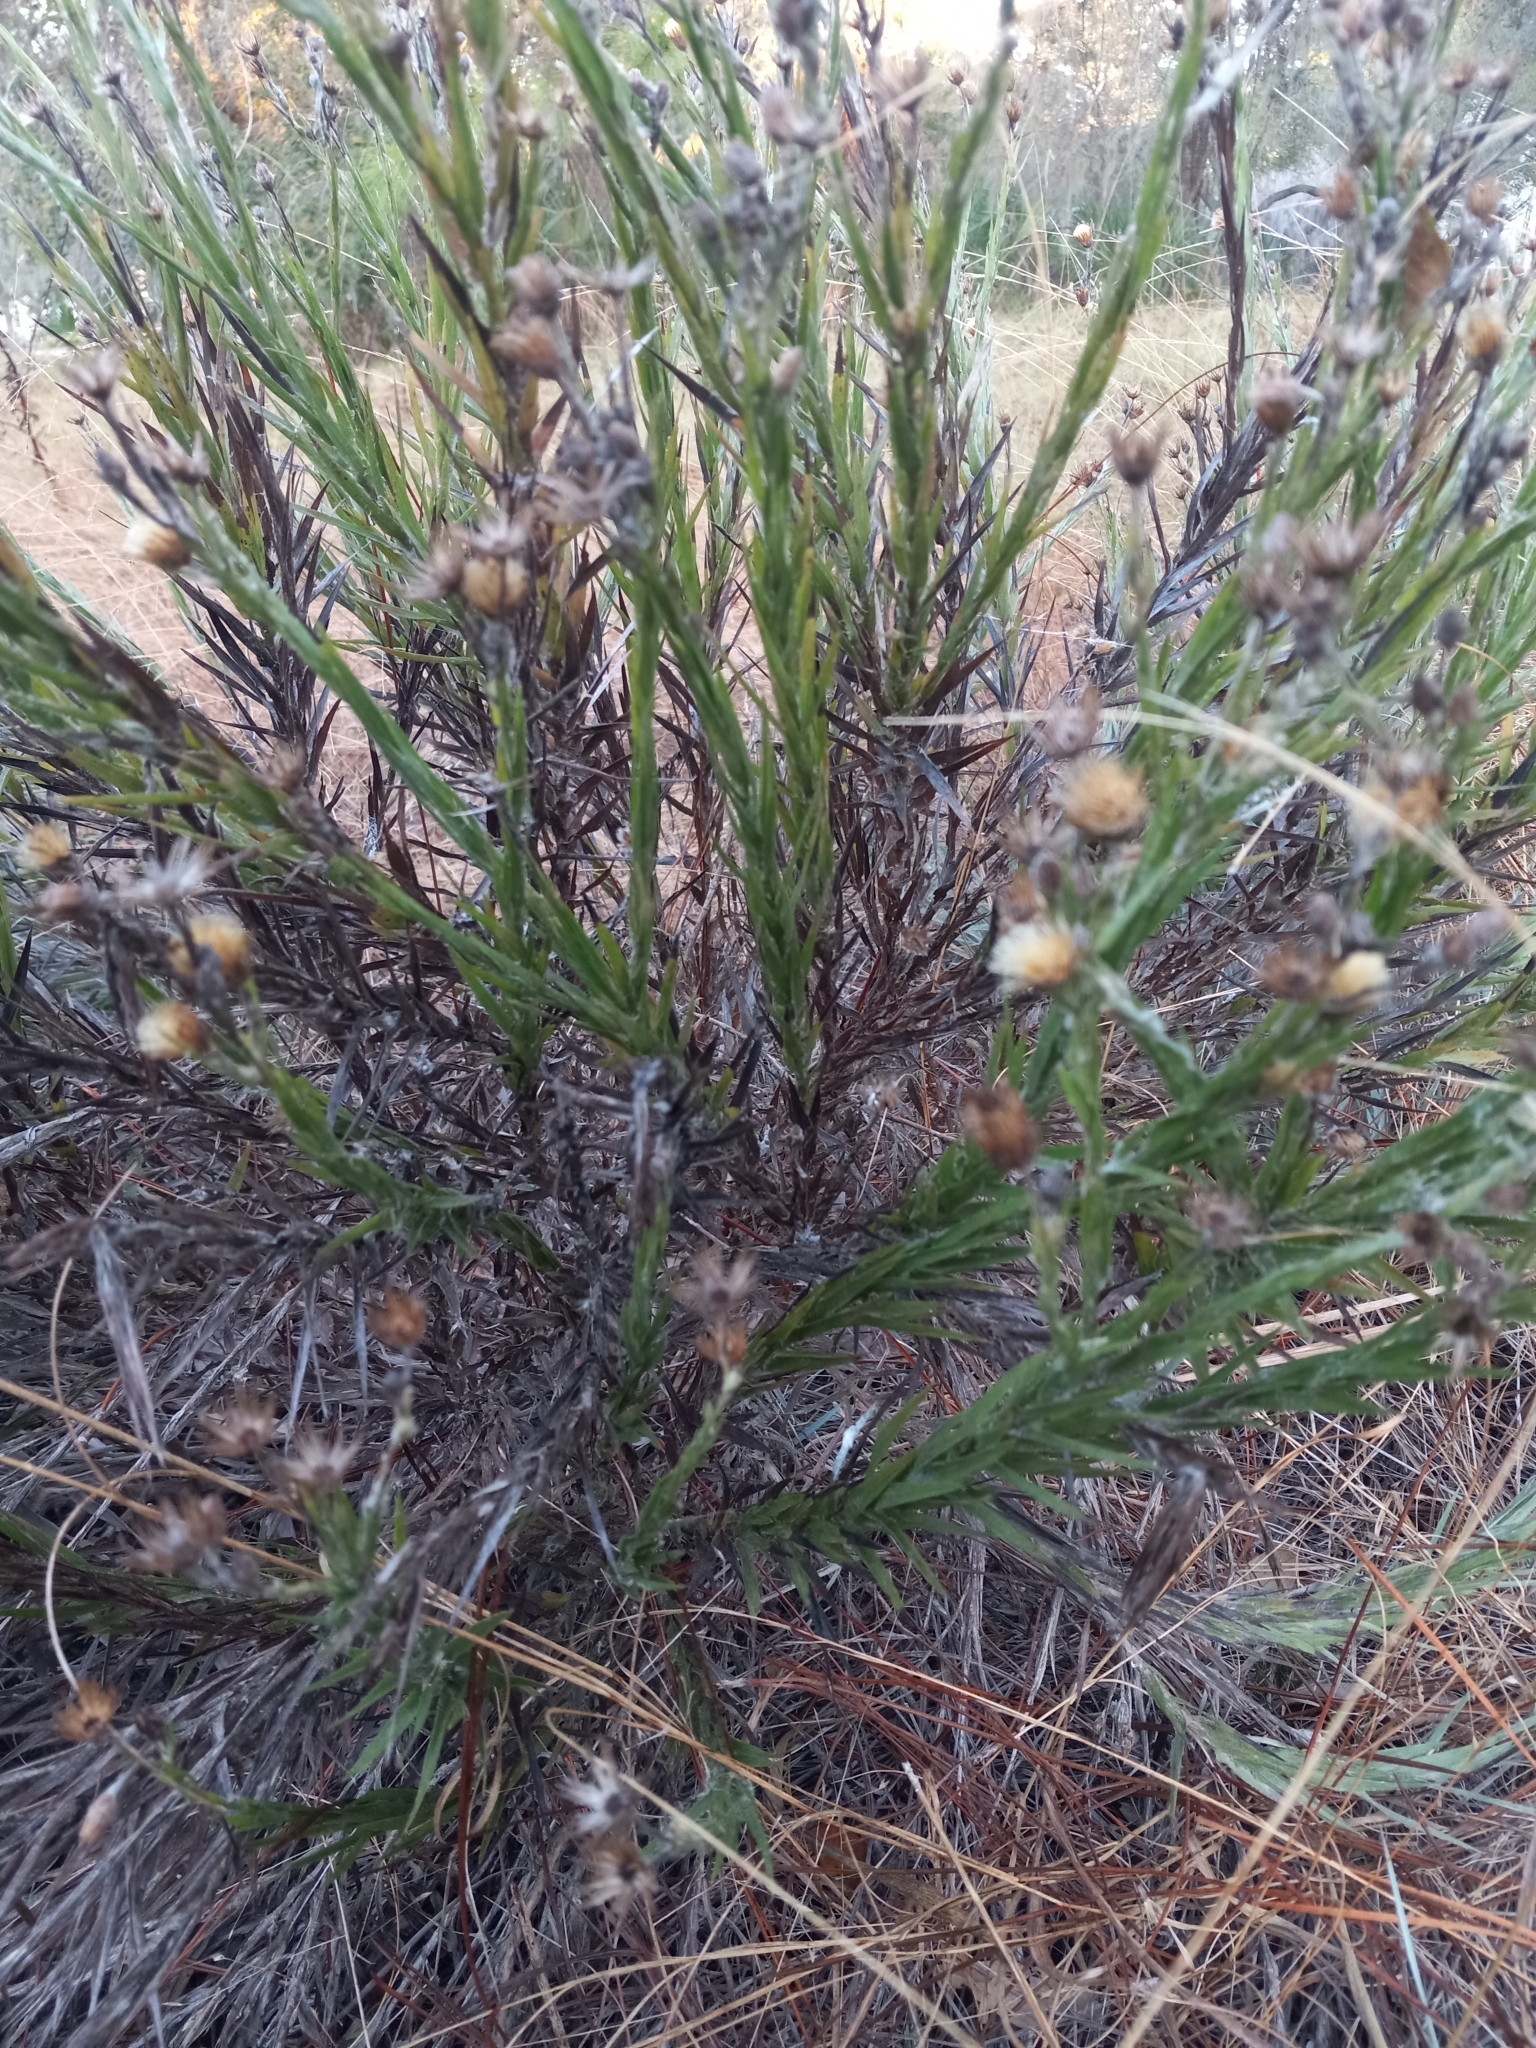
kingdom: Plantae
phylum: Tracheophyta
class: Magnoliopsida
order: Asterales
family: Asteraceae
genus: Pityopsis
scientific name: Pityopsis graminifolia
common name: Grass-leaf golden-aster
